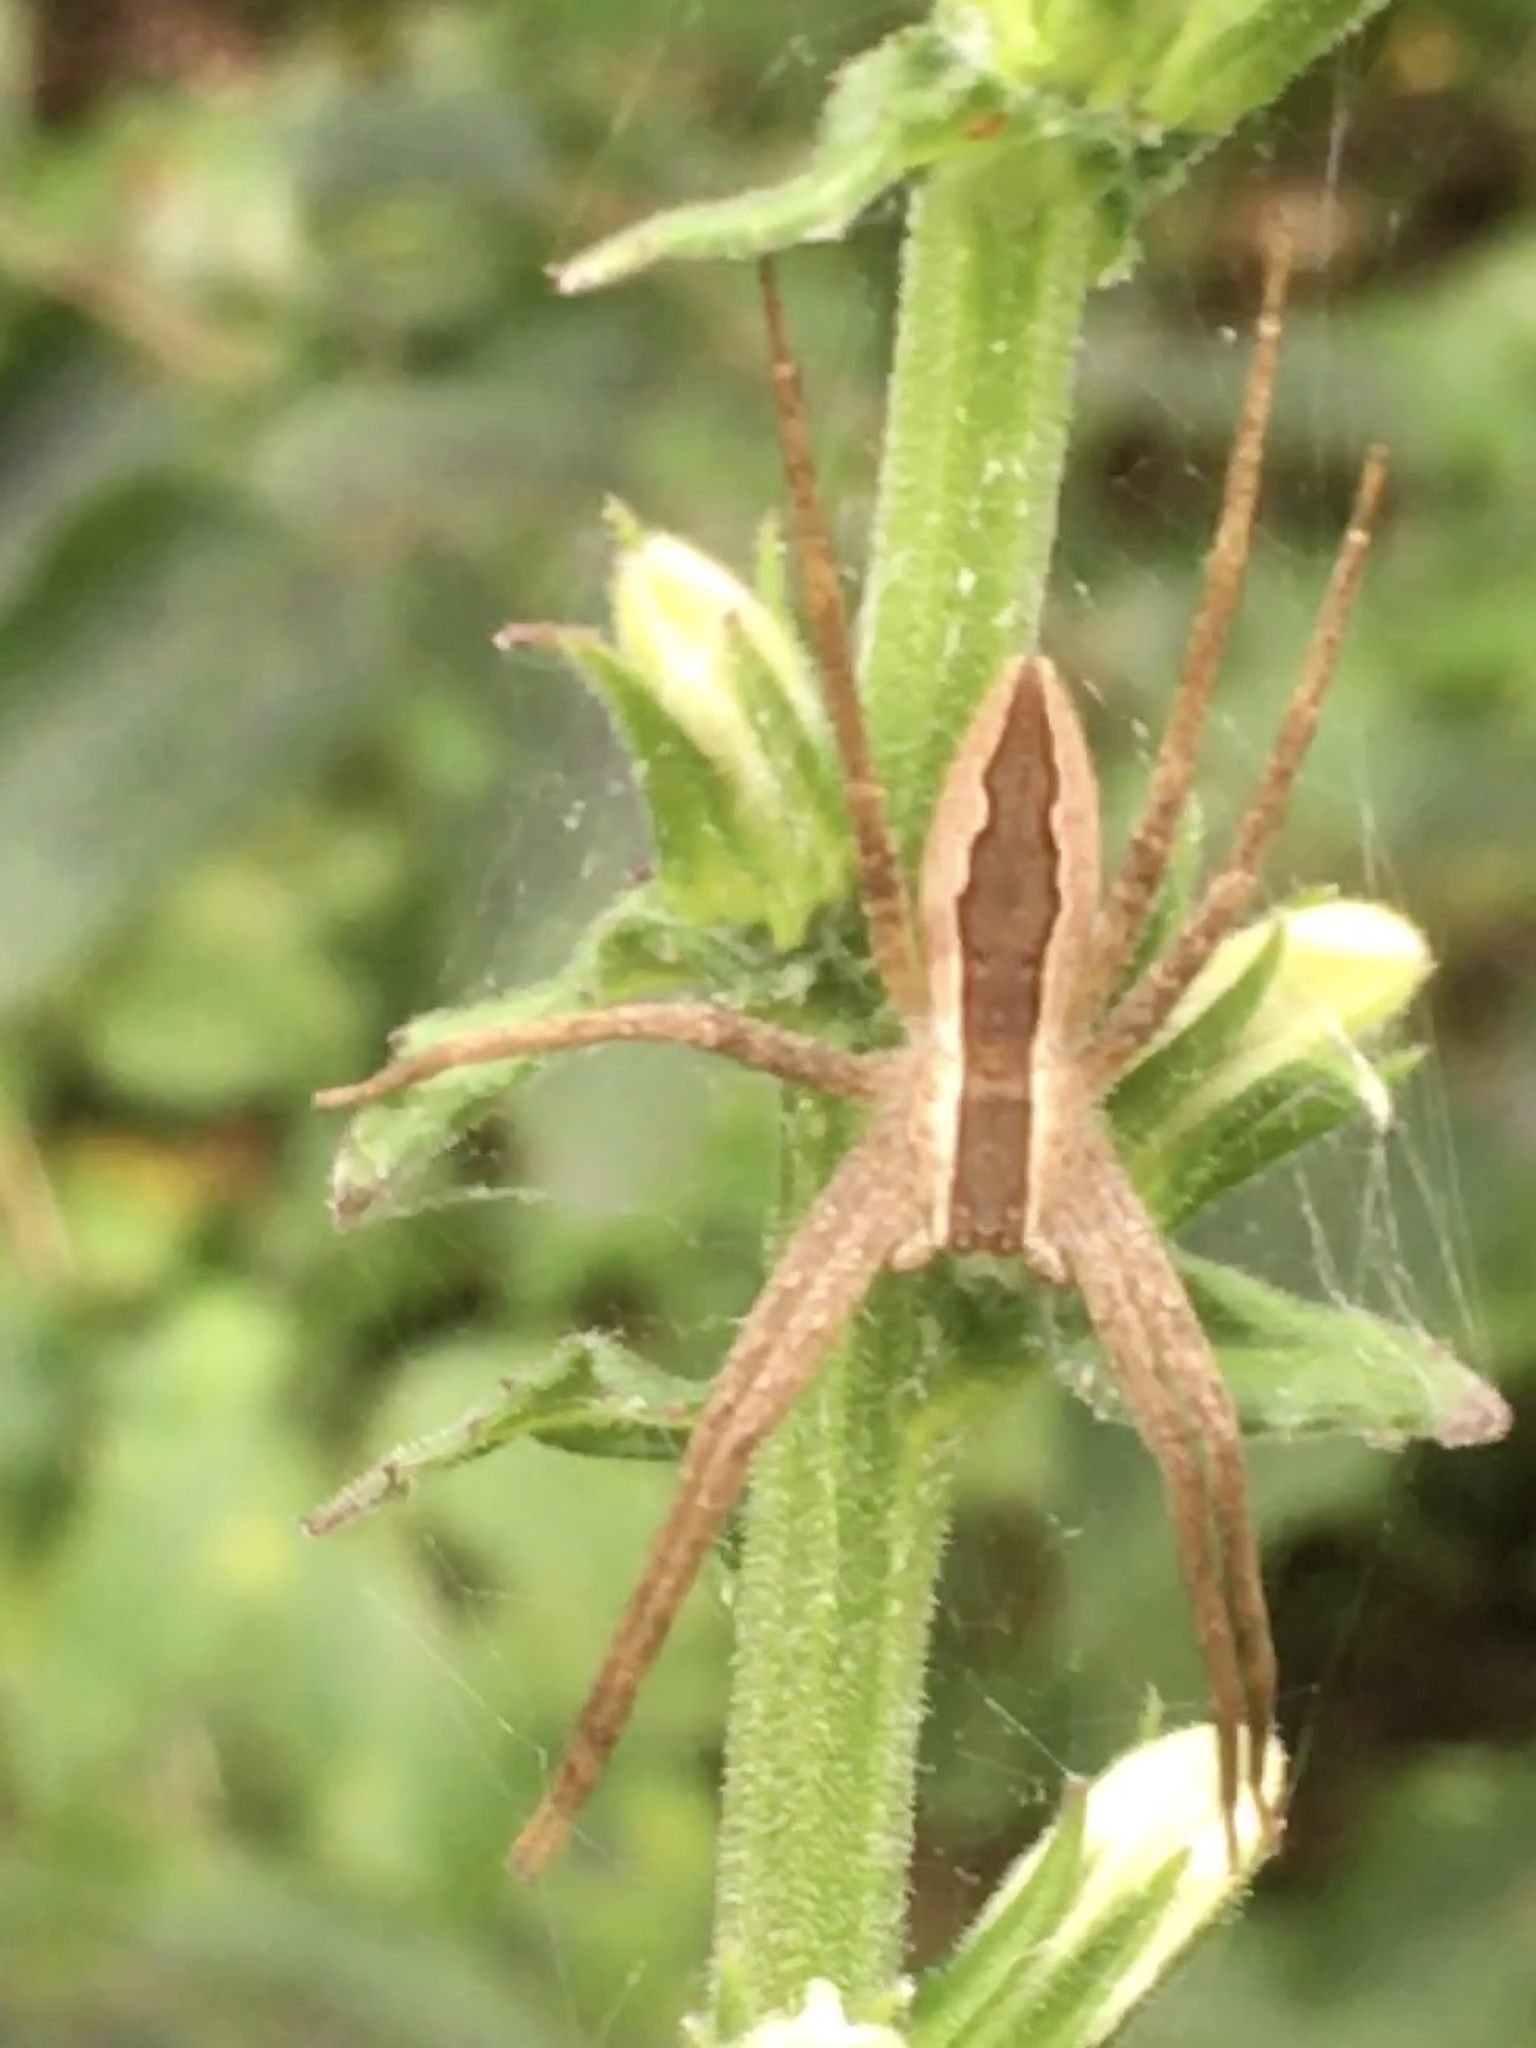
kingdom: Animalia
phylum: Arthropoda
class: Arachnida
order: Araneae
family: Pisauridae
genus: Pisaurina
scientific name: Pisaurina mira
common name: American nursery web spider
